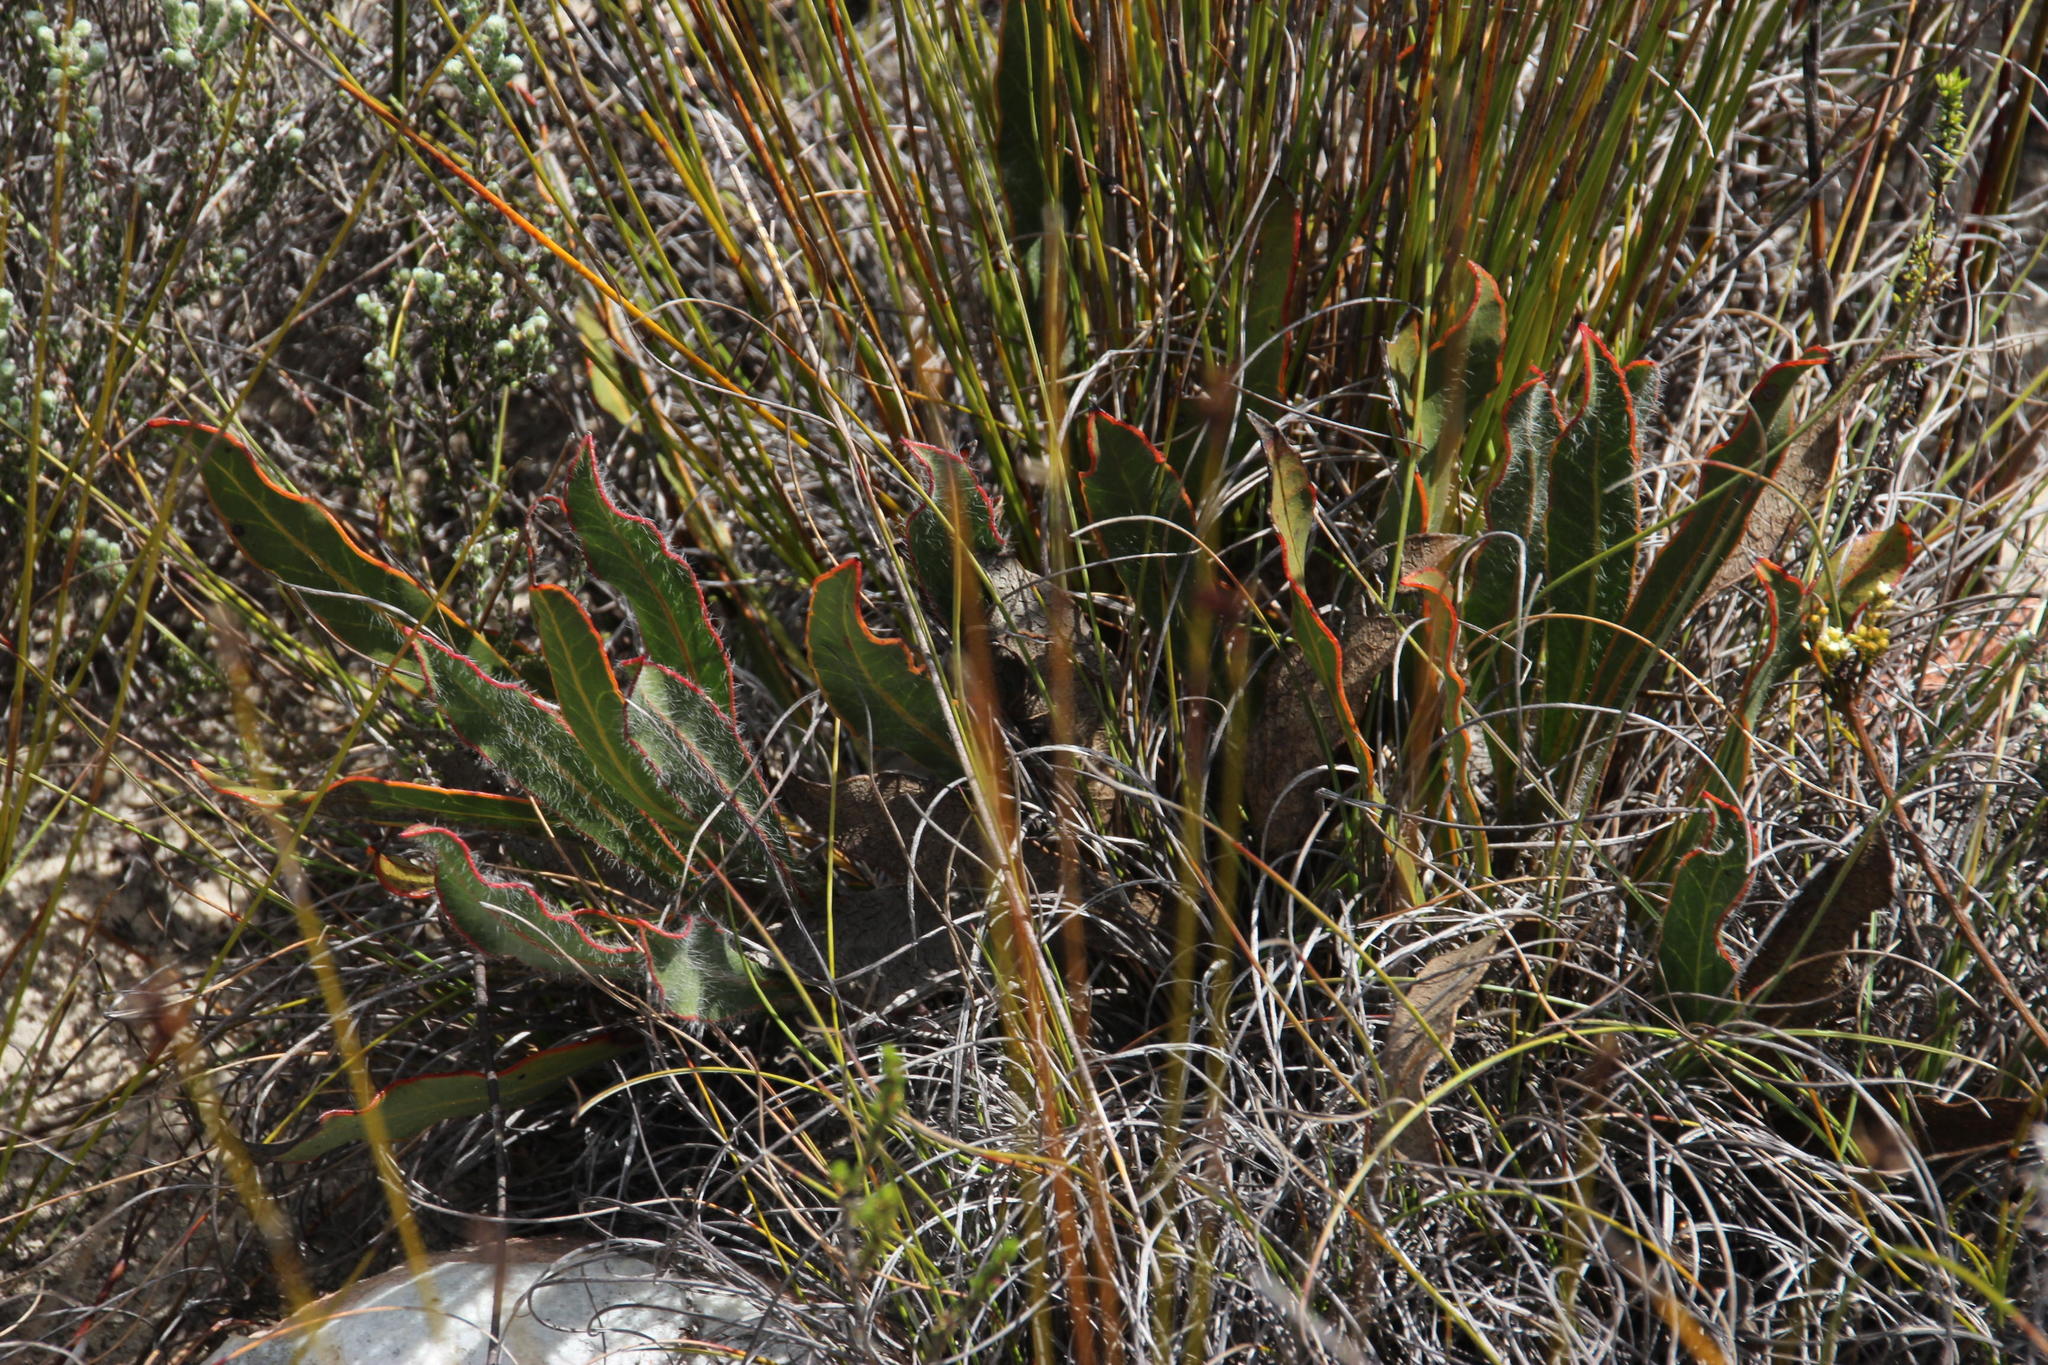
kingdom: Plantae
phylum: Tracheophyta
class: Magnoliopsida
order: Proteales
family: Proteaceae
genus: Protea
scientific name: Protea scolopendriifolia
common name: Harts-tongue-fern sugarbush
